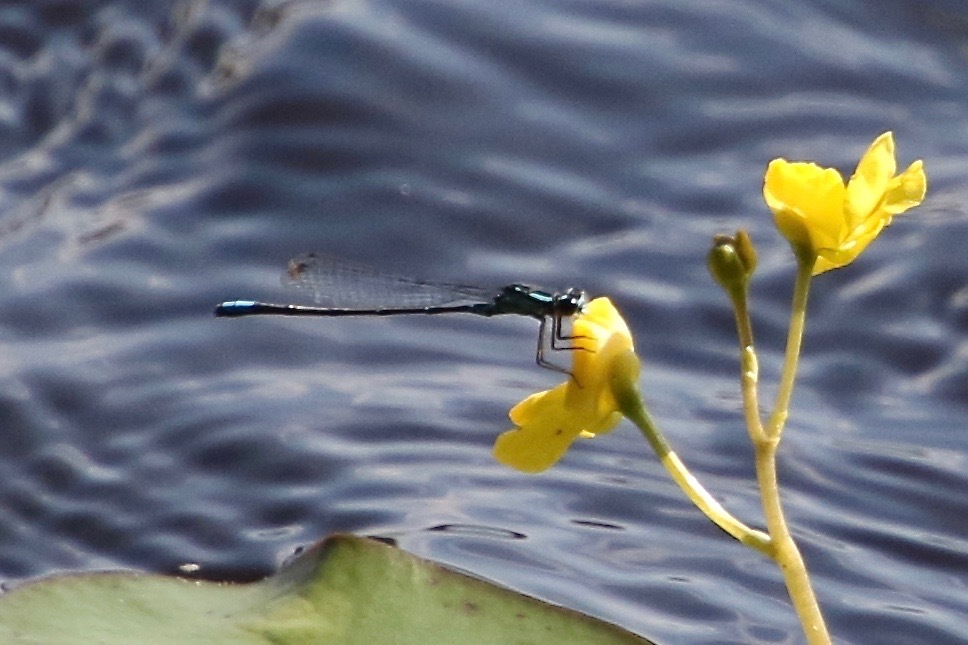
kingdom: Animalia
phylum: Arthropoda
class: Insecta
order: Odonata
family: Coenagrionidae
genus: Enallagma
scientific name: Enallagma geminatum
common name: Skimming bluet
